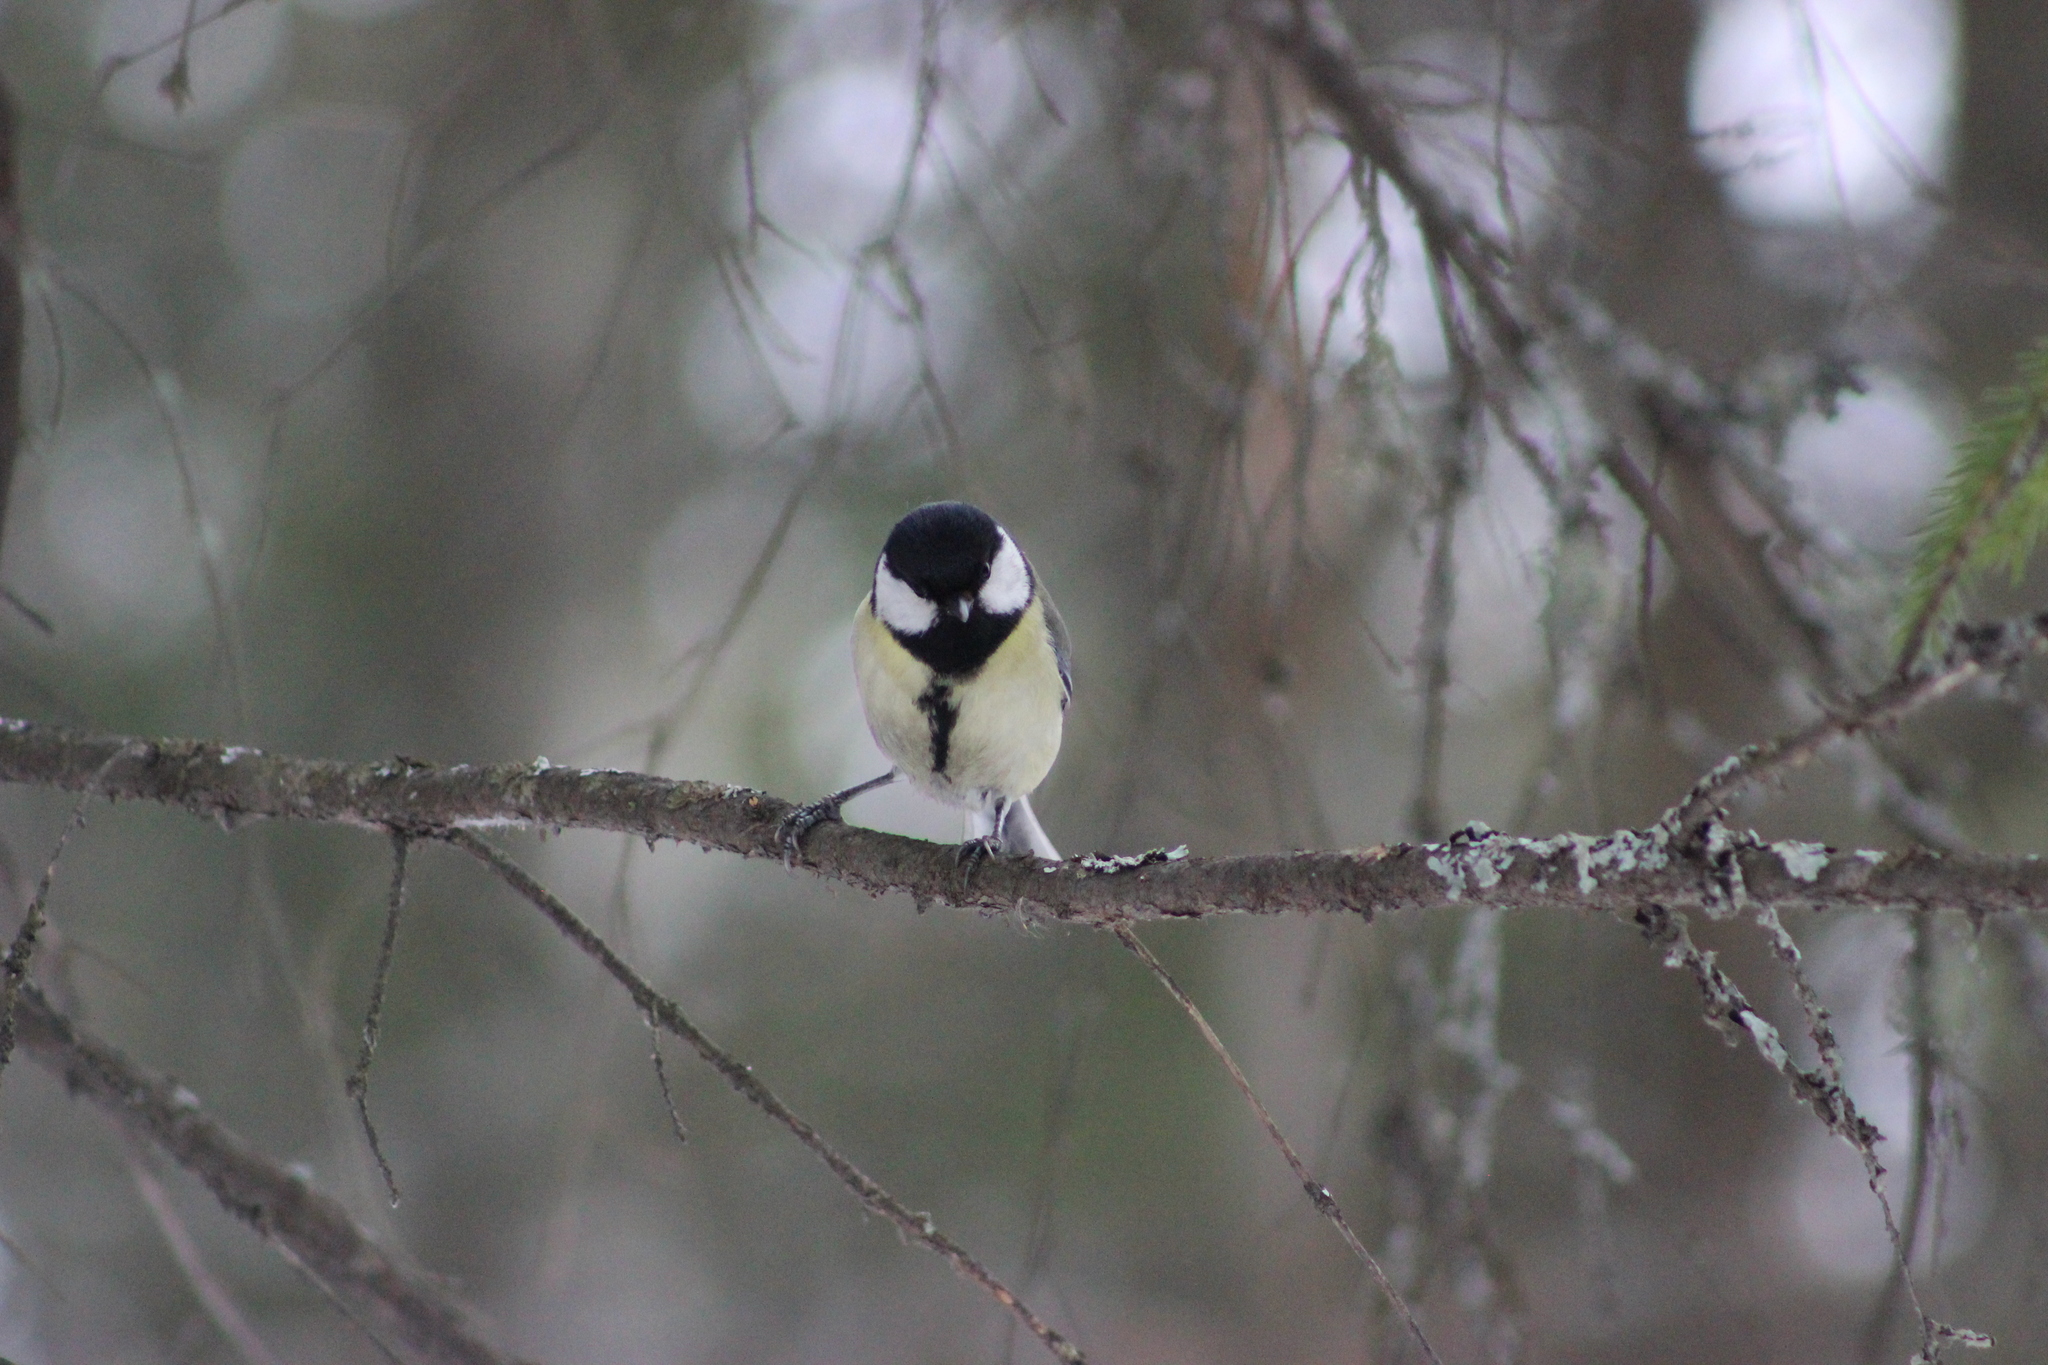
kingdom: Animalia
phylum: Chordata
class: Aves
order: Passeriformes
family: Paridae
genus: Parus
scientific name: Parus major
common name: Great tit
